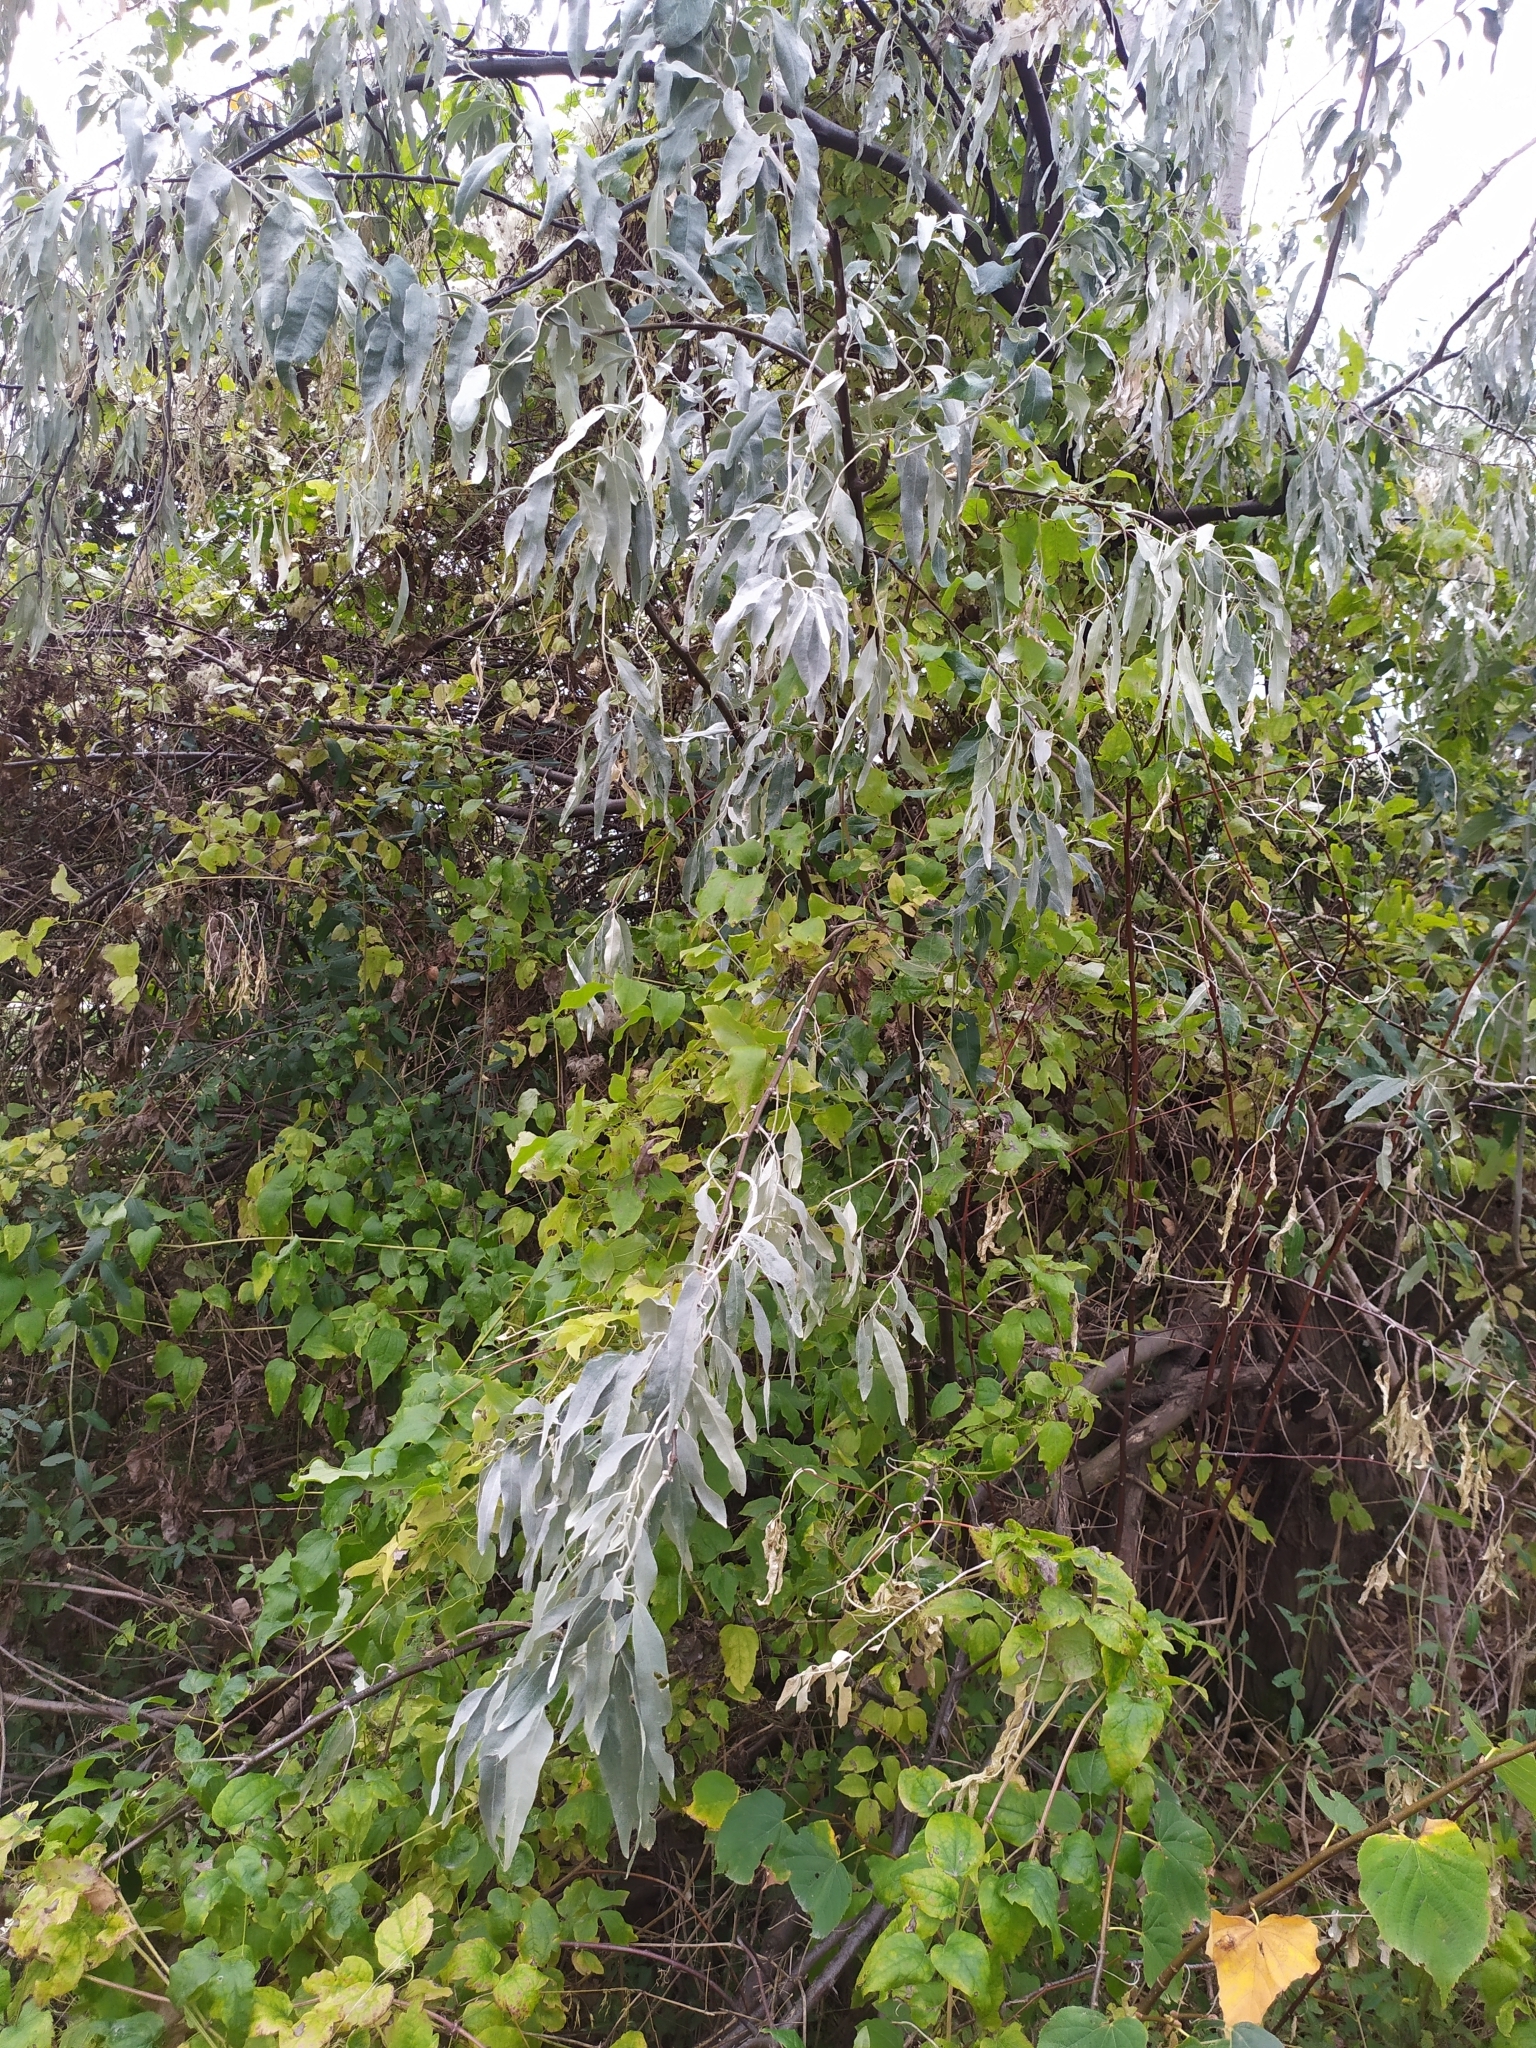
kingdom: Plantae
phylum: Tracheophyta
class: Magnoliopsida
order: Rosales
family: Elaeagnaceae
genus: Elaeagnus
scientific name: Elaeagnus angustifolia
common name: Russian olive
